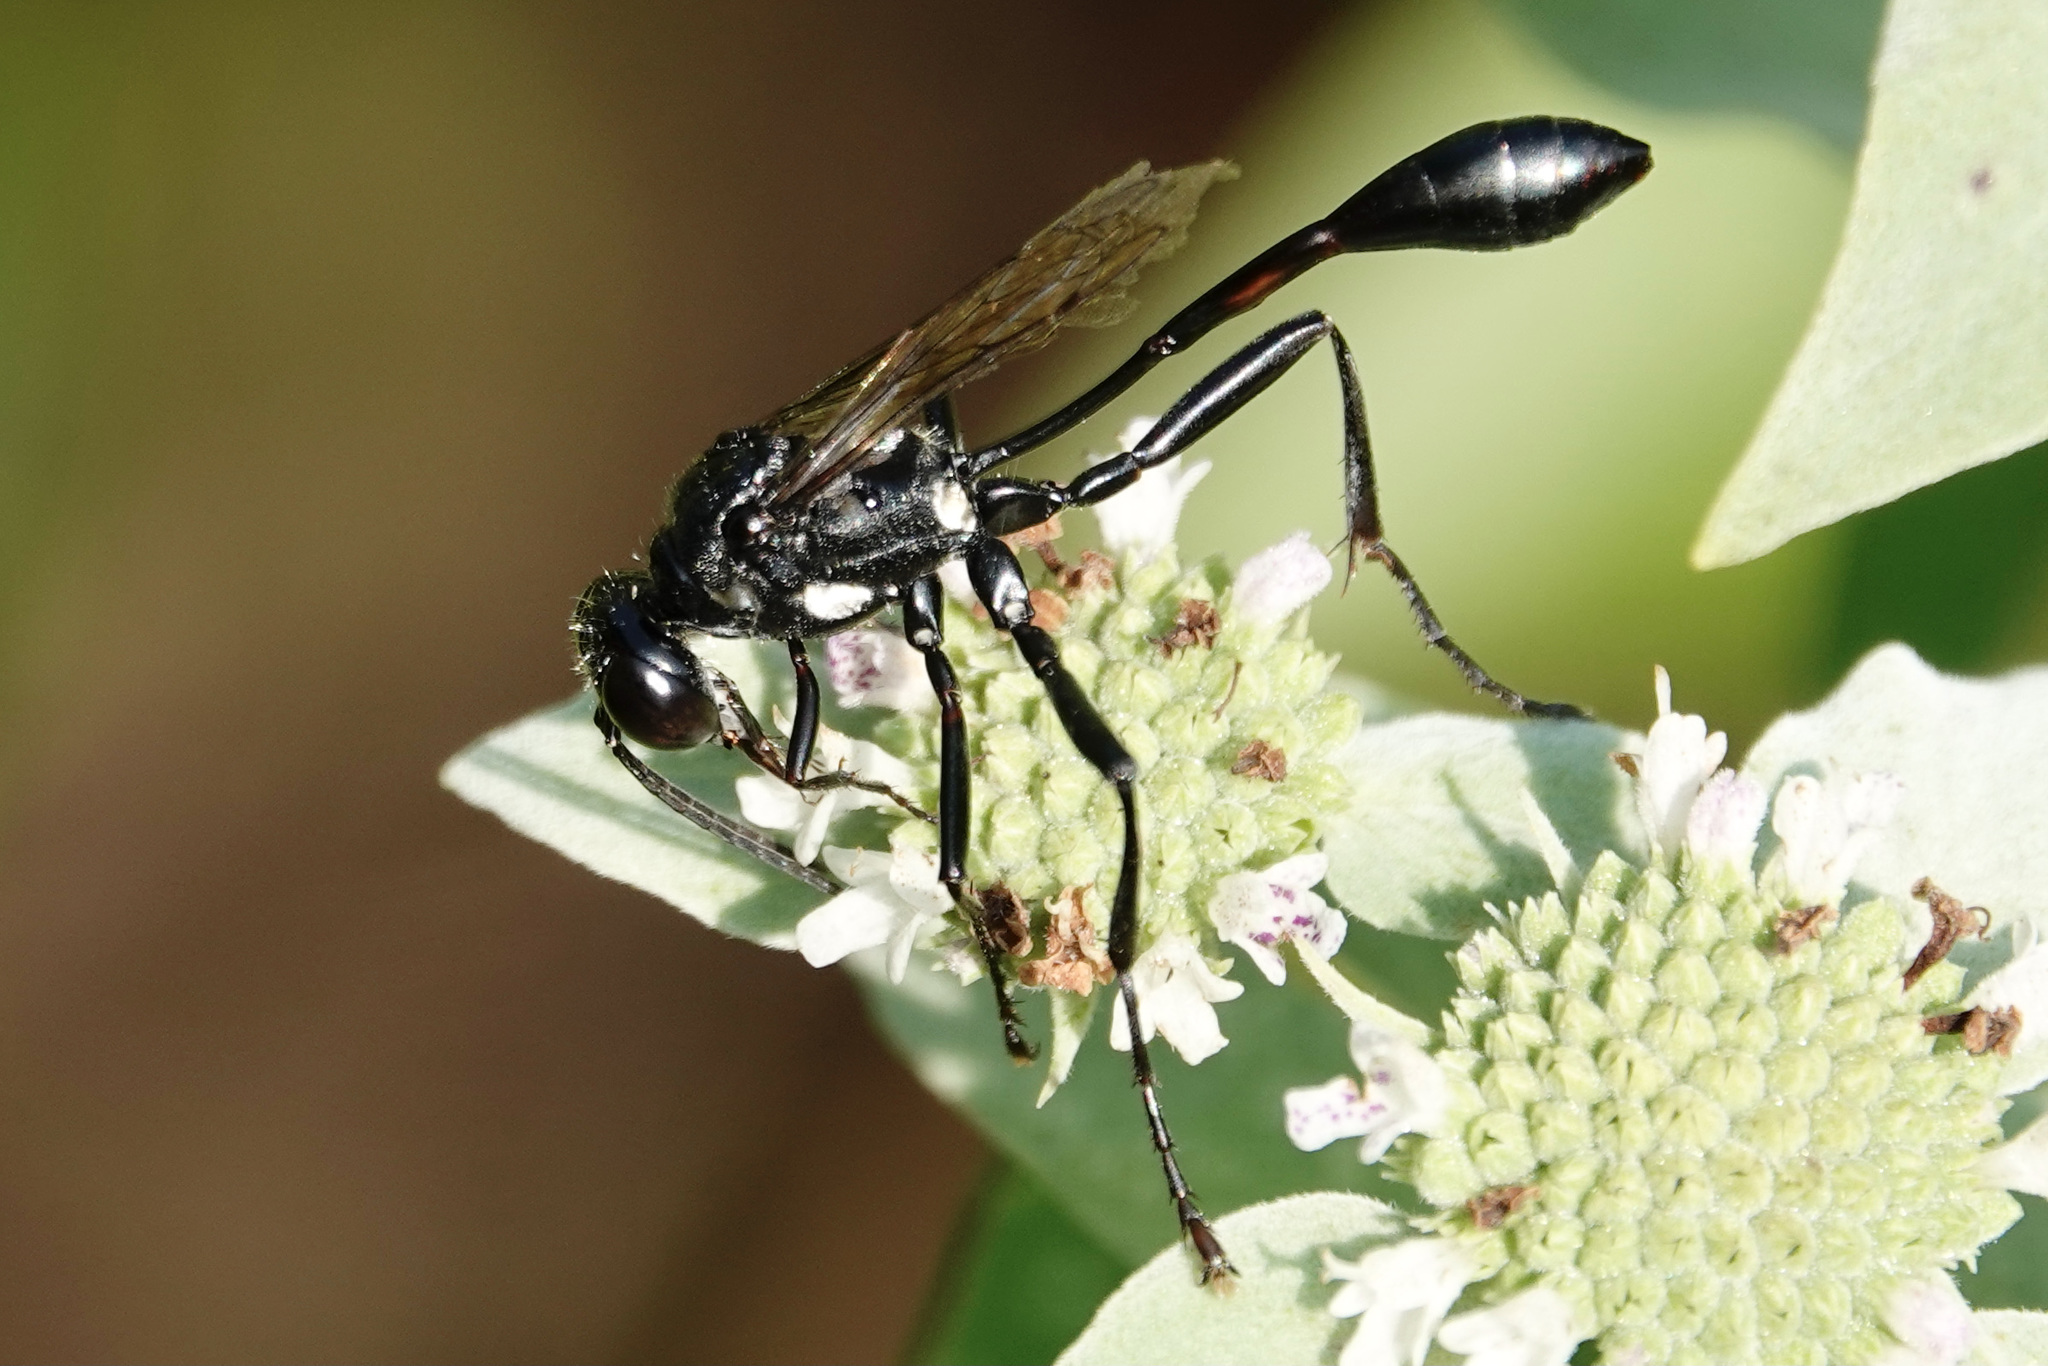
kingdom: Animalia
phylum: Arthropoda
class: Insecta
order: Hymenoptera
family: Sphecidae
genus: Eremnophila
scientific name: Eremnophila aureonotata
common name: Gold-marked thread-waisted wasp
